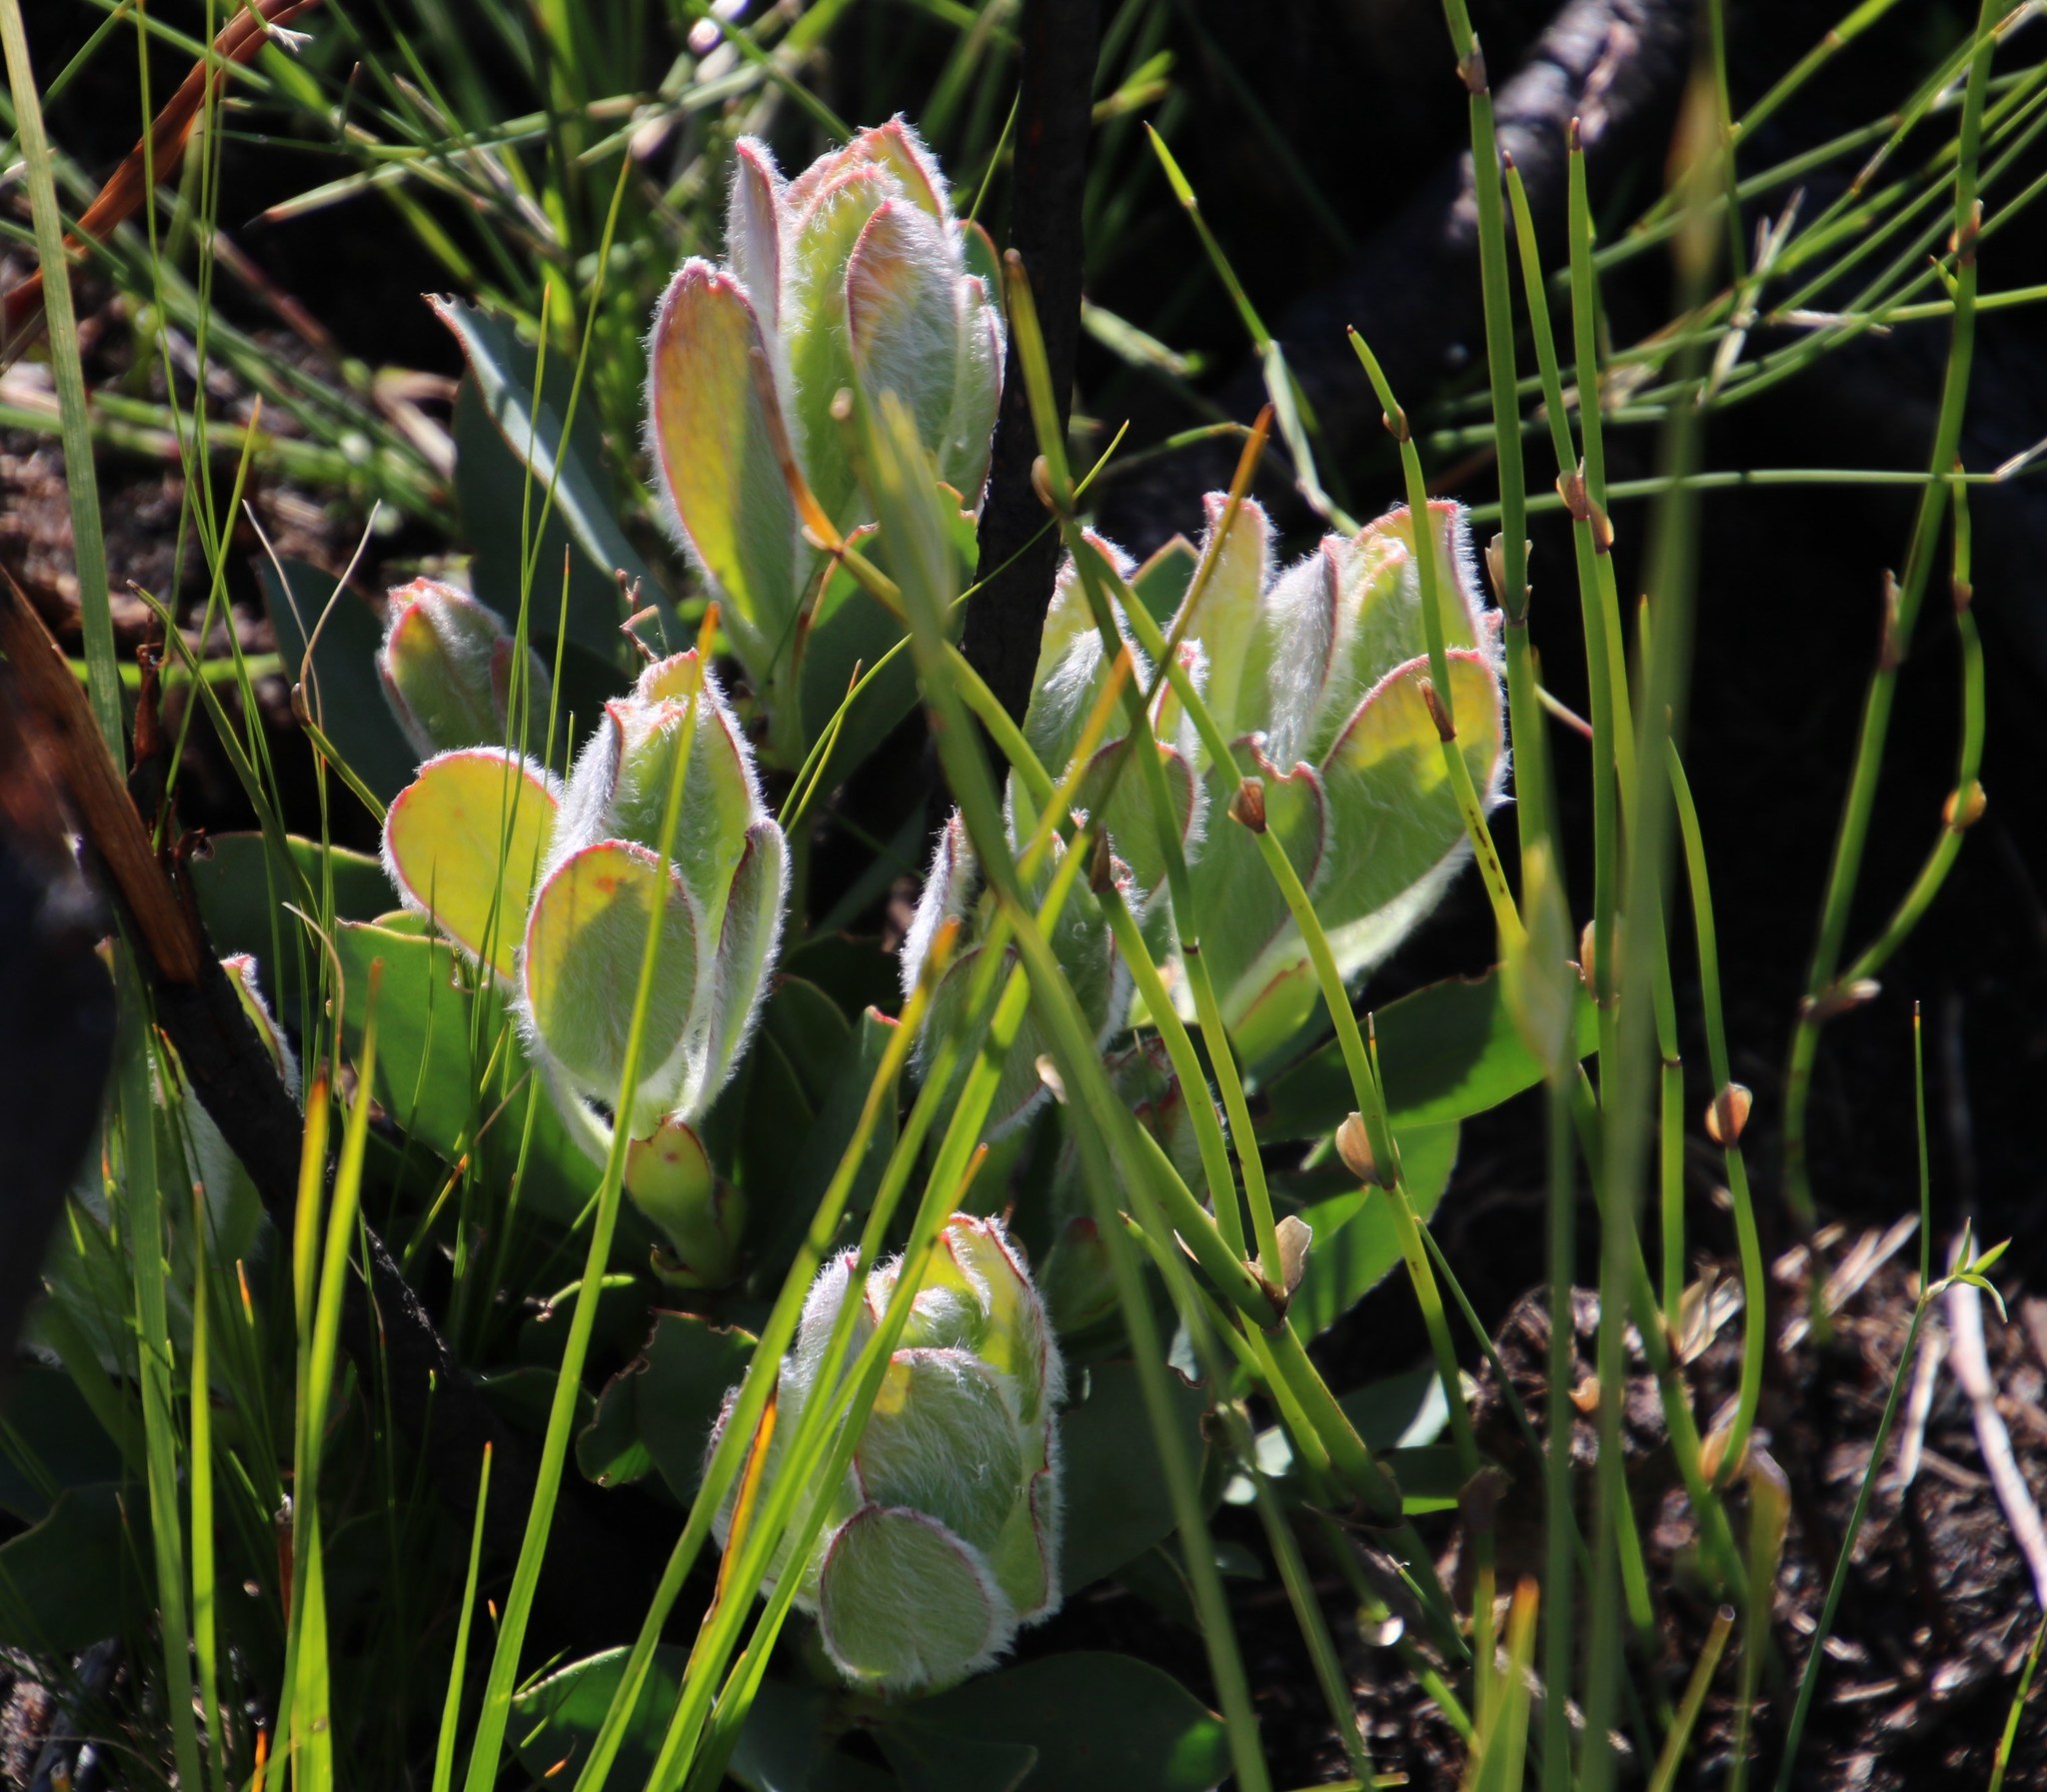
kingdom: Plantae
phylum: Tracheophyta
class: Magnoliopsida
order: Proteales
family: Proteaceae
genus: Protea
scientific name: Protea speciosa
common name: Brown-beard sugarbush
